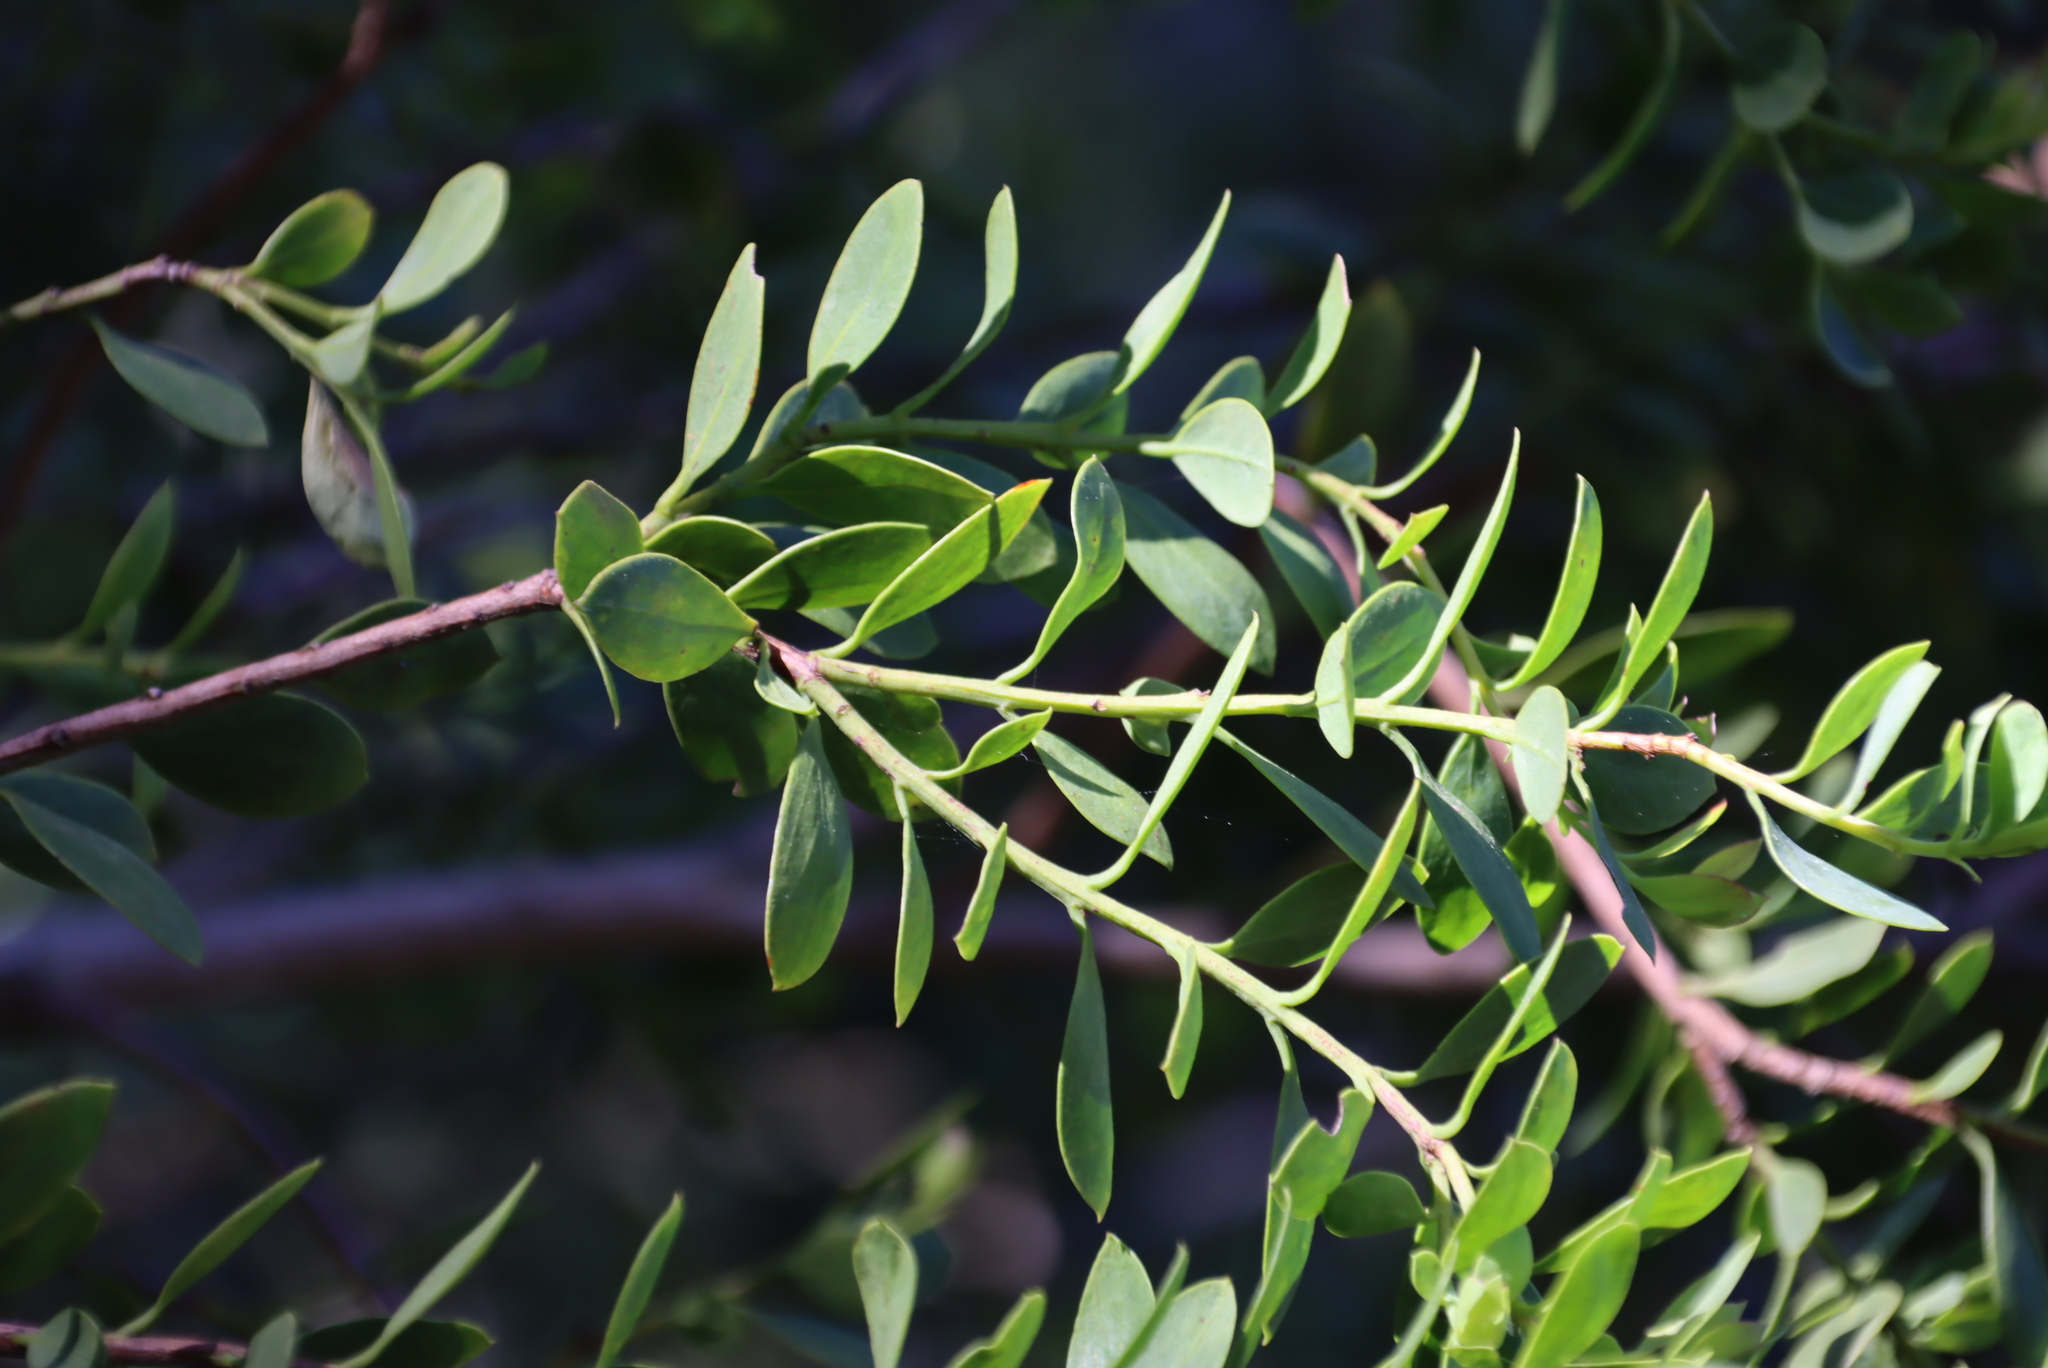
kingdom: Plantae
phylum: Tracheophyta
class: Magnoliopsida
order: Santalales
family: Santalaceae
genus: Osyris
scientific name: Osyris compressa
